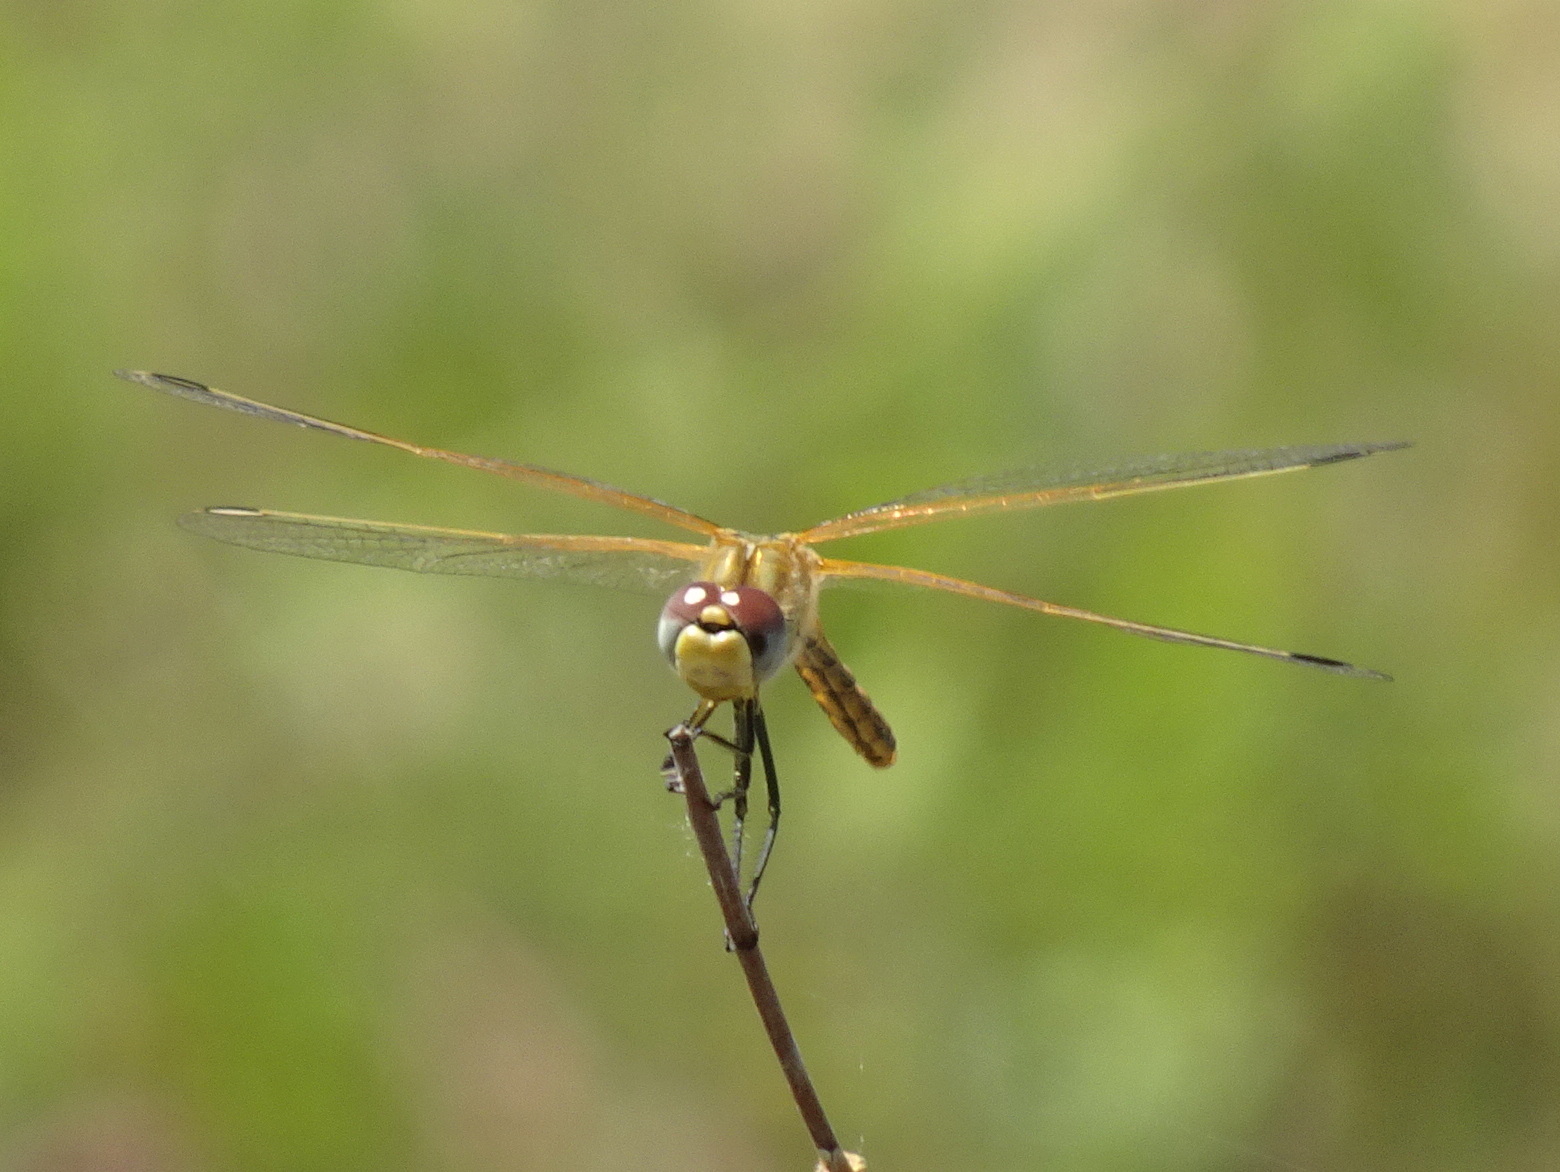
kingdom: Animalia
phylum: Arthropoda
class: Insecta
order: Odonata
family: Libellulidae
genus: Sympetrum
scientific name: Sympetrum fonscolombii
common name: Red-veined darter
